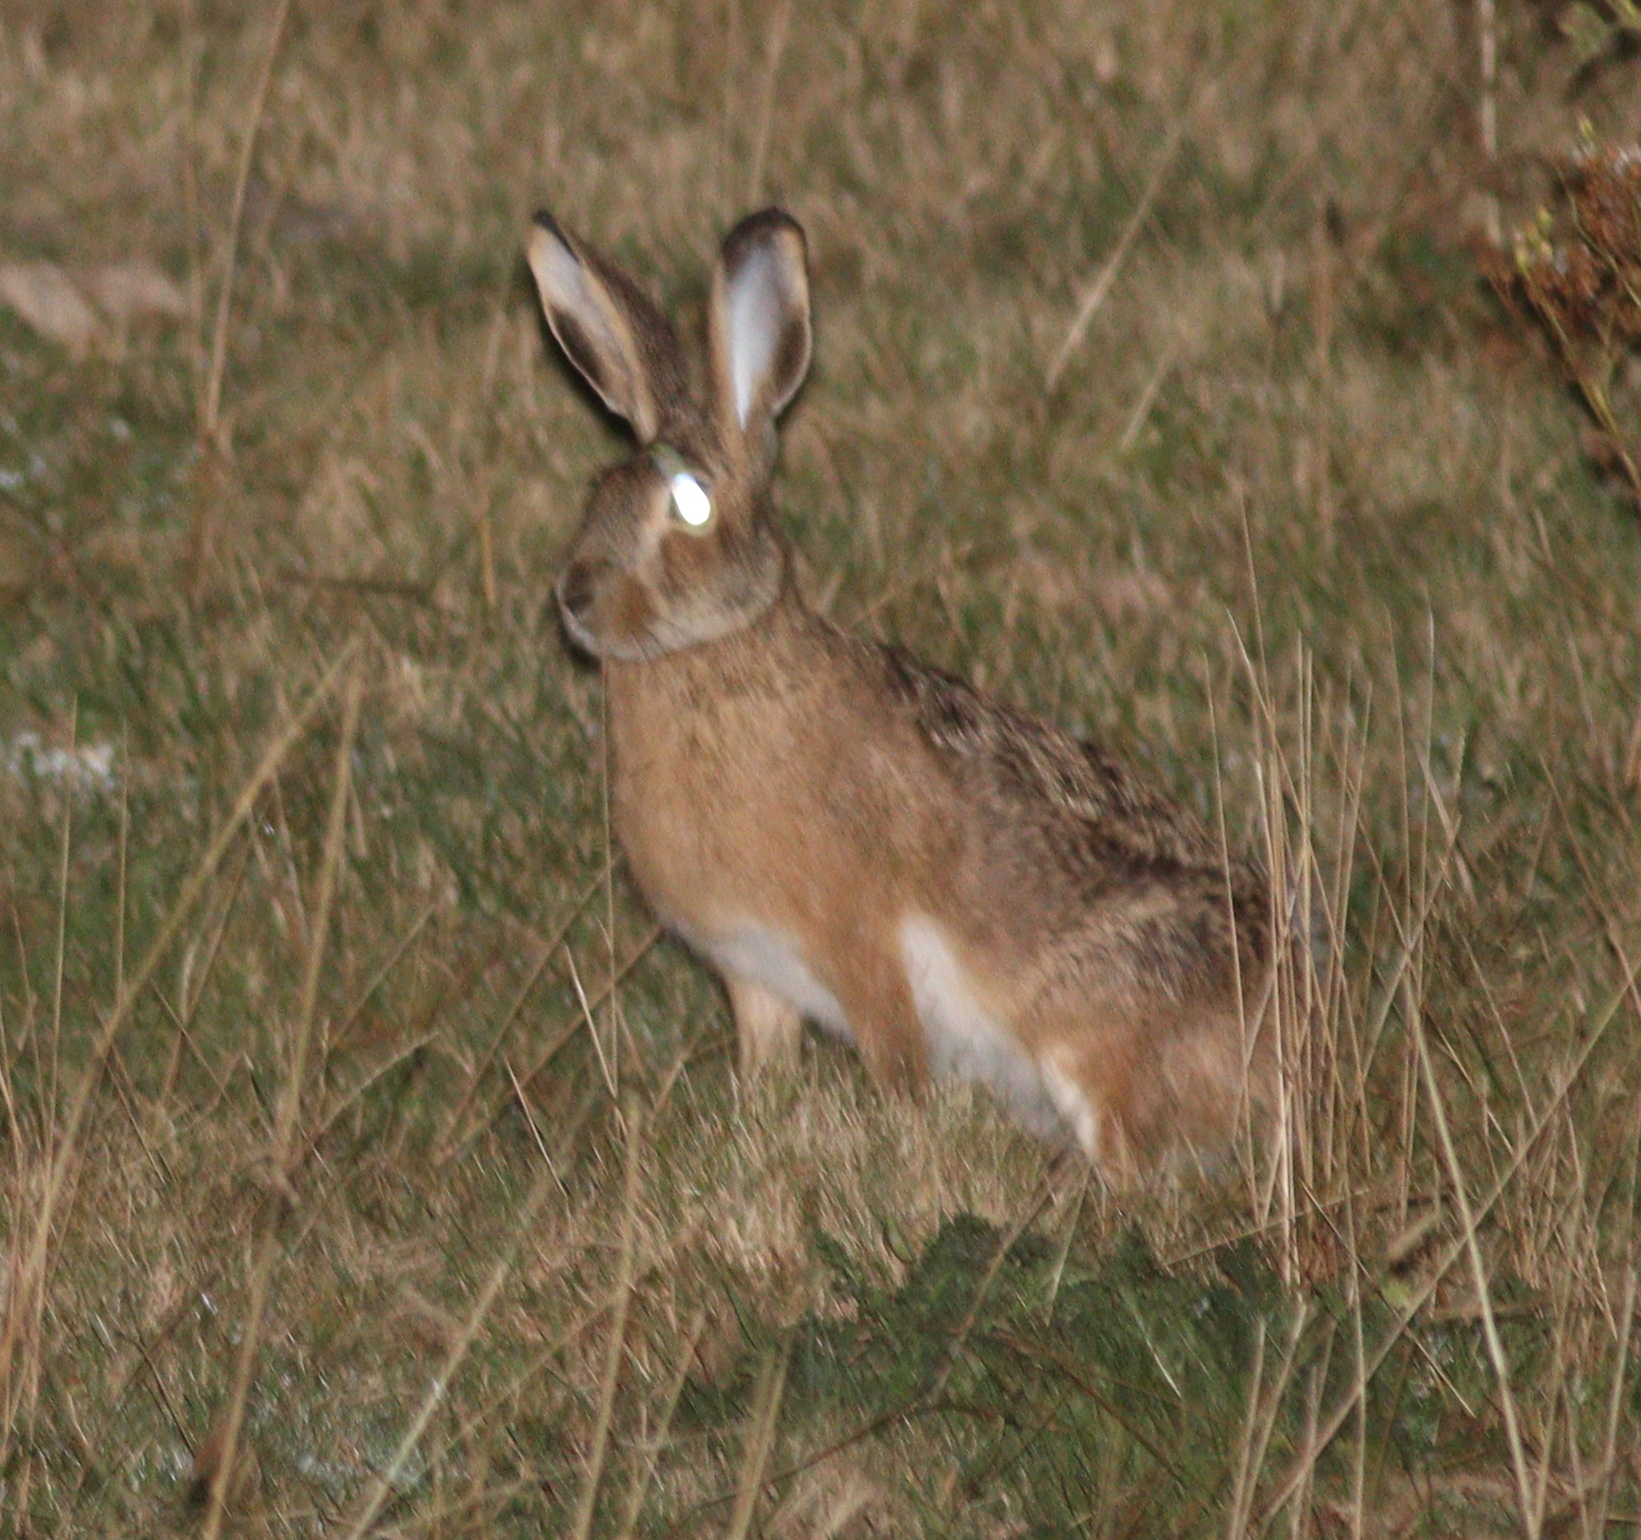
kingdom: Animalia
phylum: Chordata
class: Mammalia
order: Lagomorpha
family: Leporidae
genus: Lepus
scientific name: Lepus castroviejoi
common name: Broom hare
